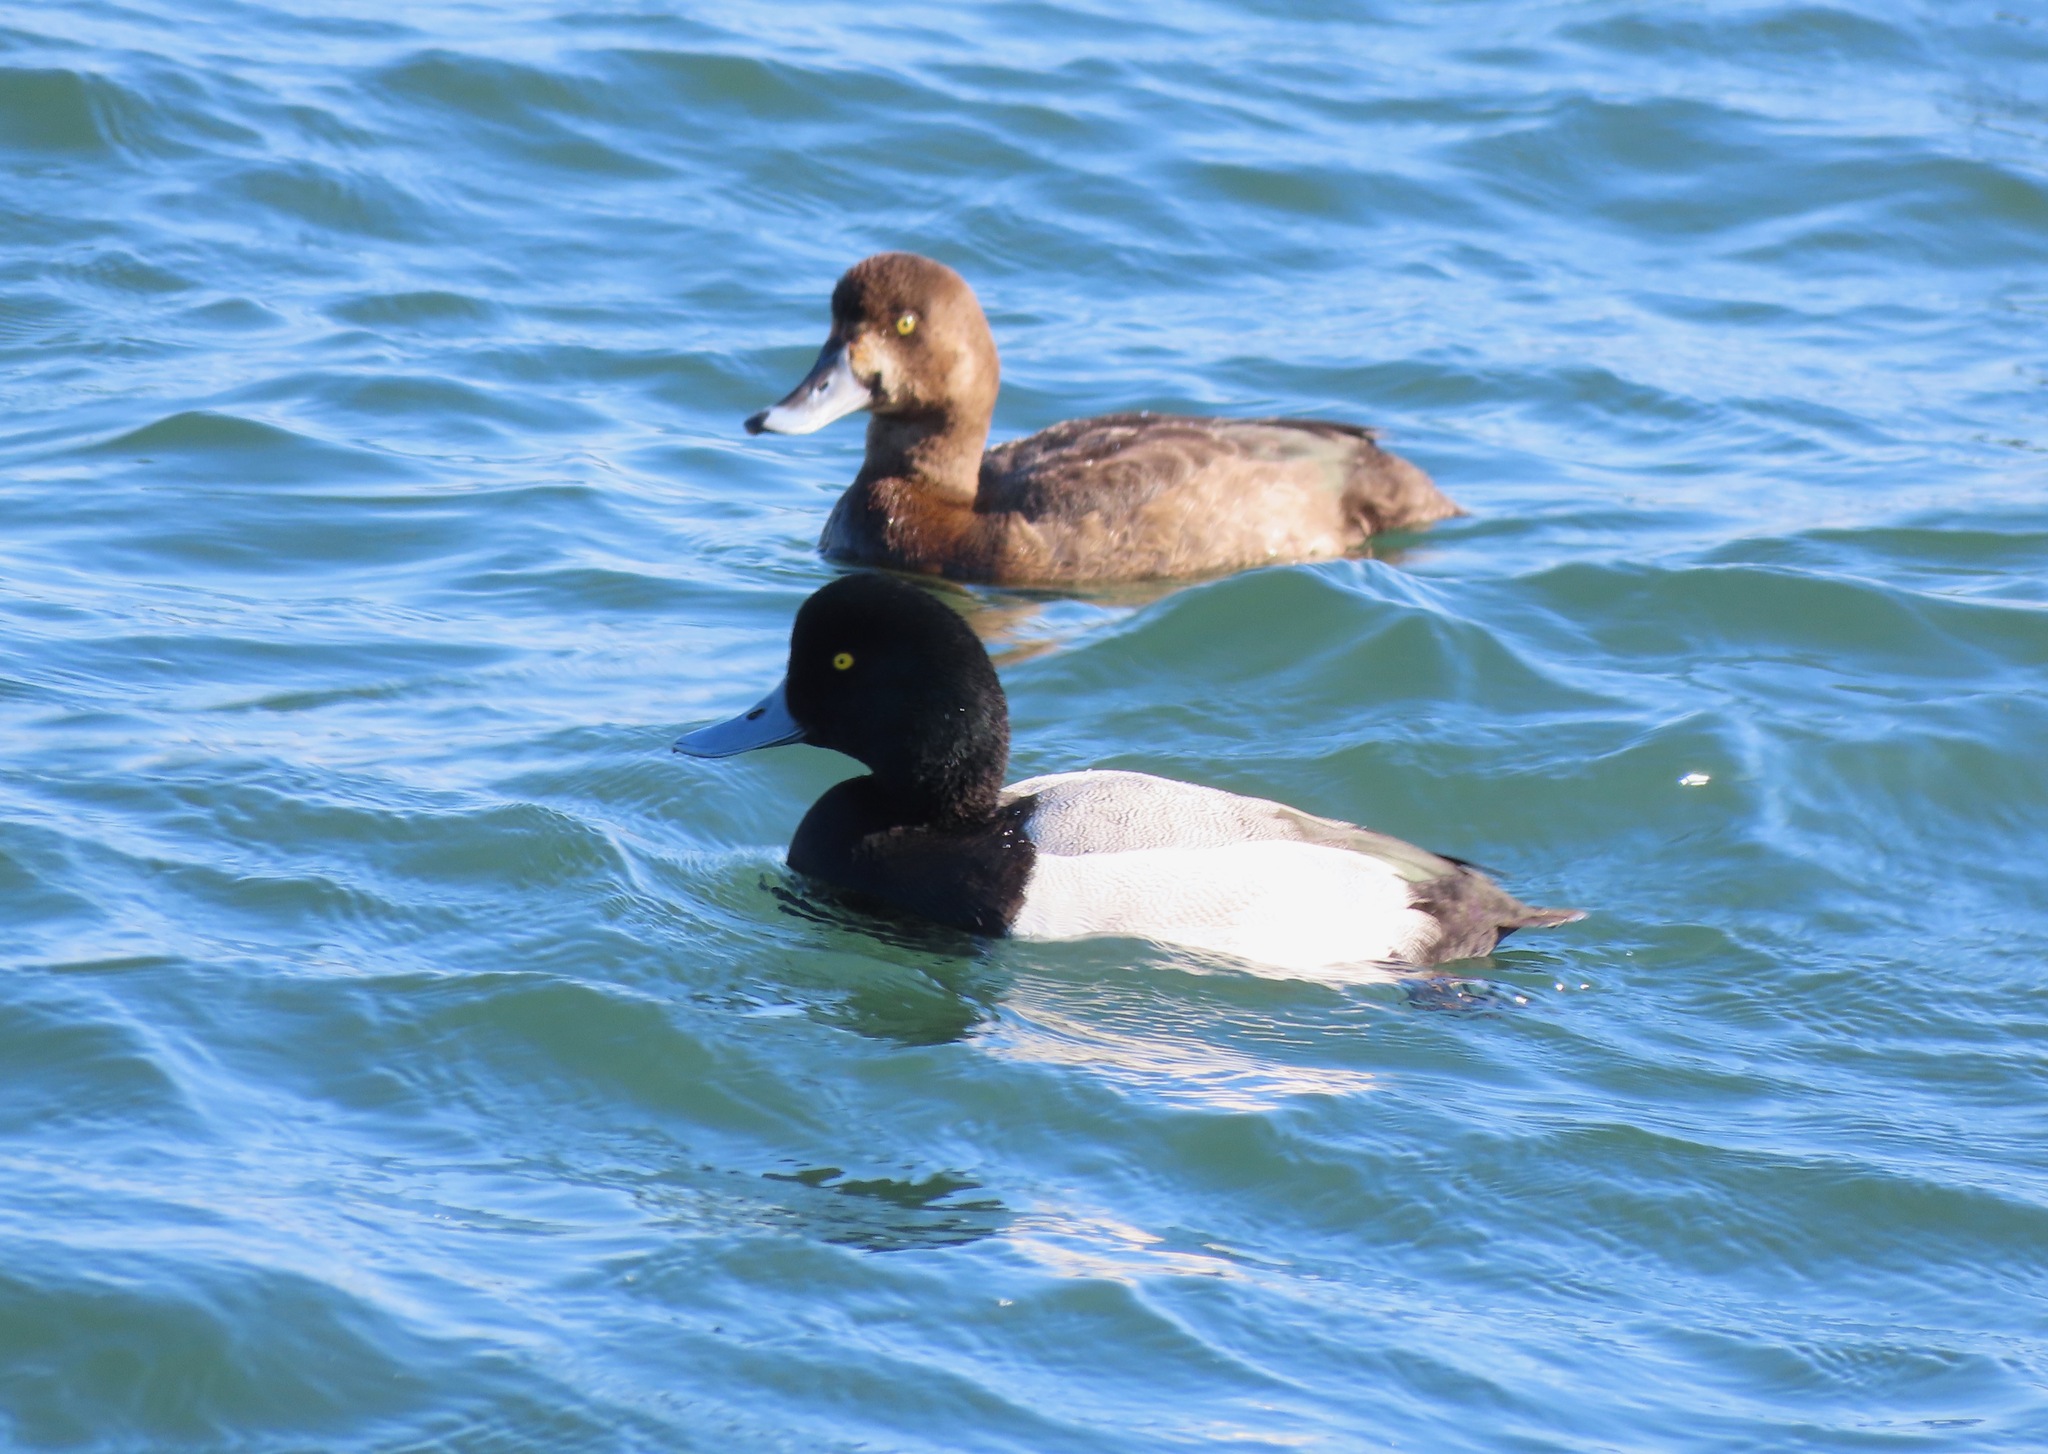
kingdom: Animalia
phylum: Chordata
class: Aves
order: Anseriformes
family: Anatidae
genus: Aythya
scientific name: Aythya marila
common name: Greater scaup
